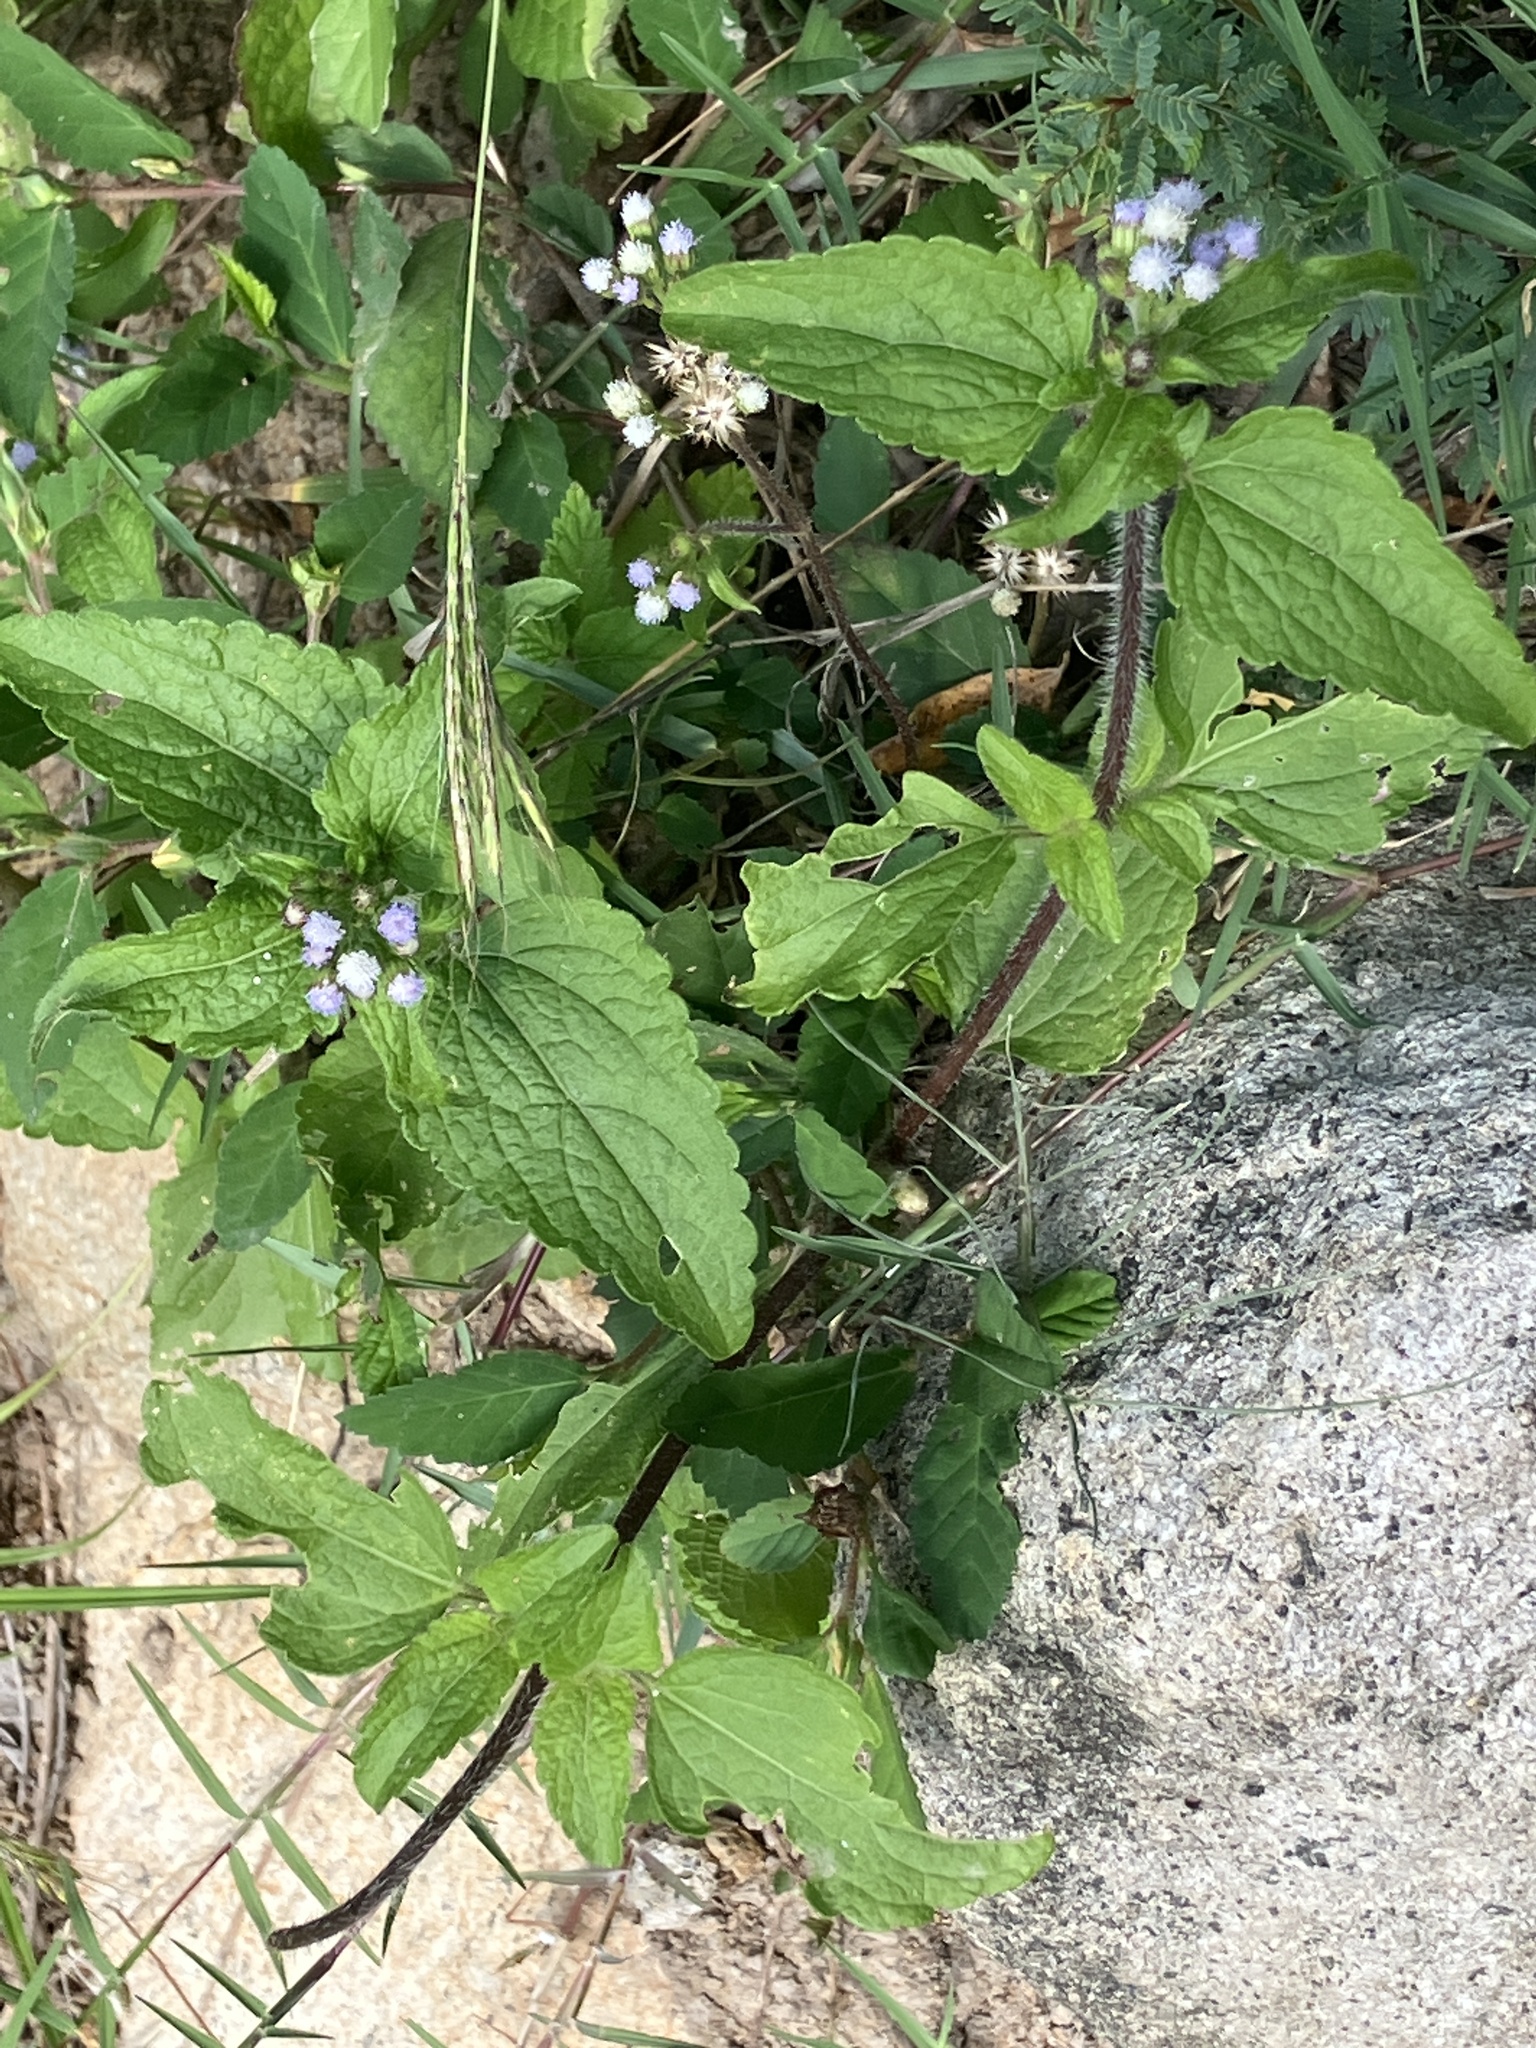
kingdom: Plantae
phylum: Tracheophyta
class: Magnoliopsida
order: Asterales
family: Asteraceae
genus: Ageratum
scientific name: Ageratum conyzoides
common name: Tropical whiteweed
